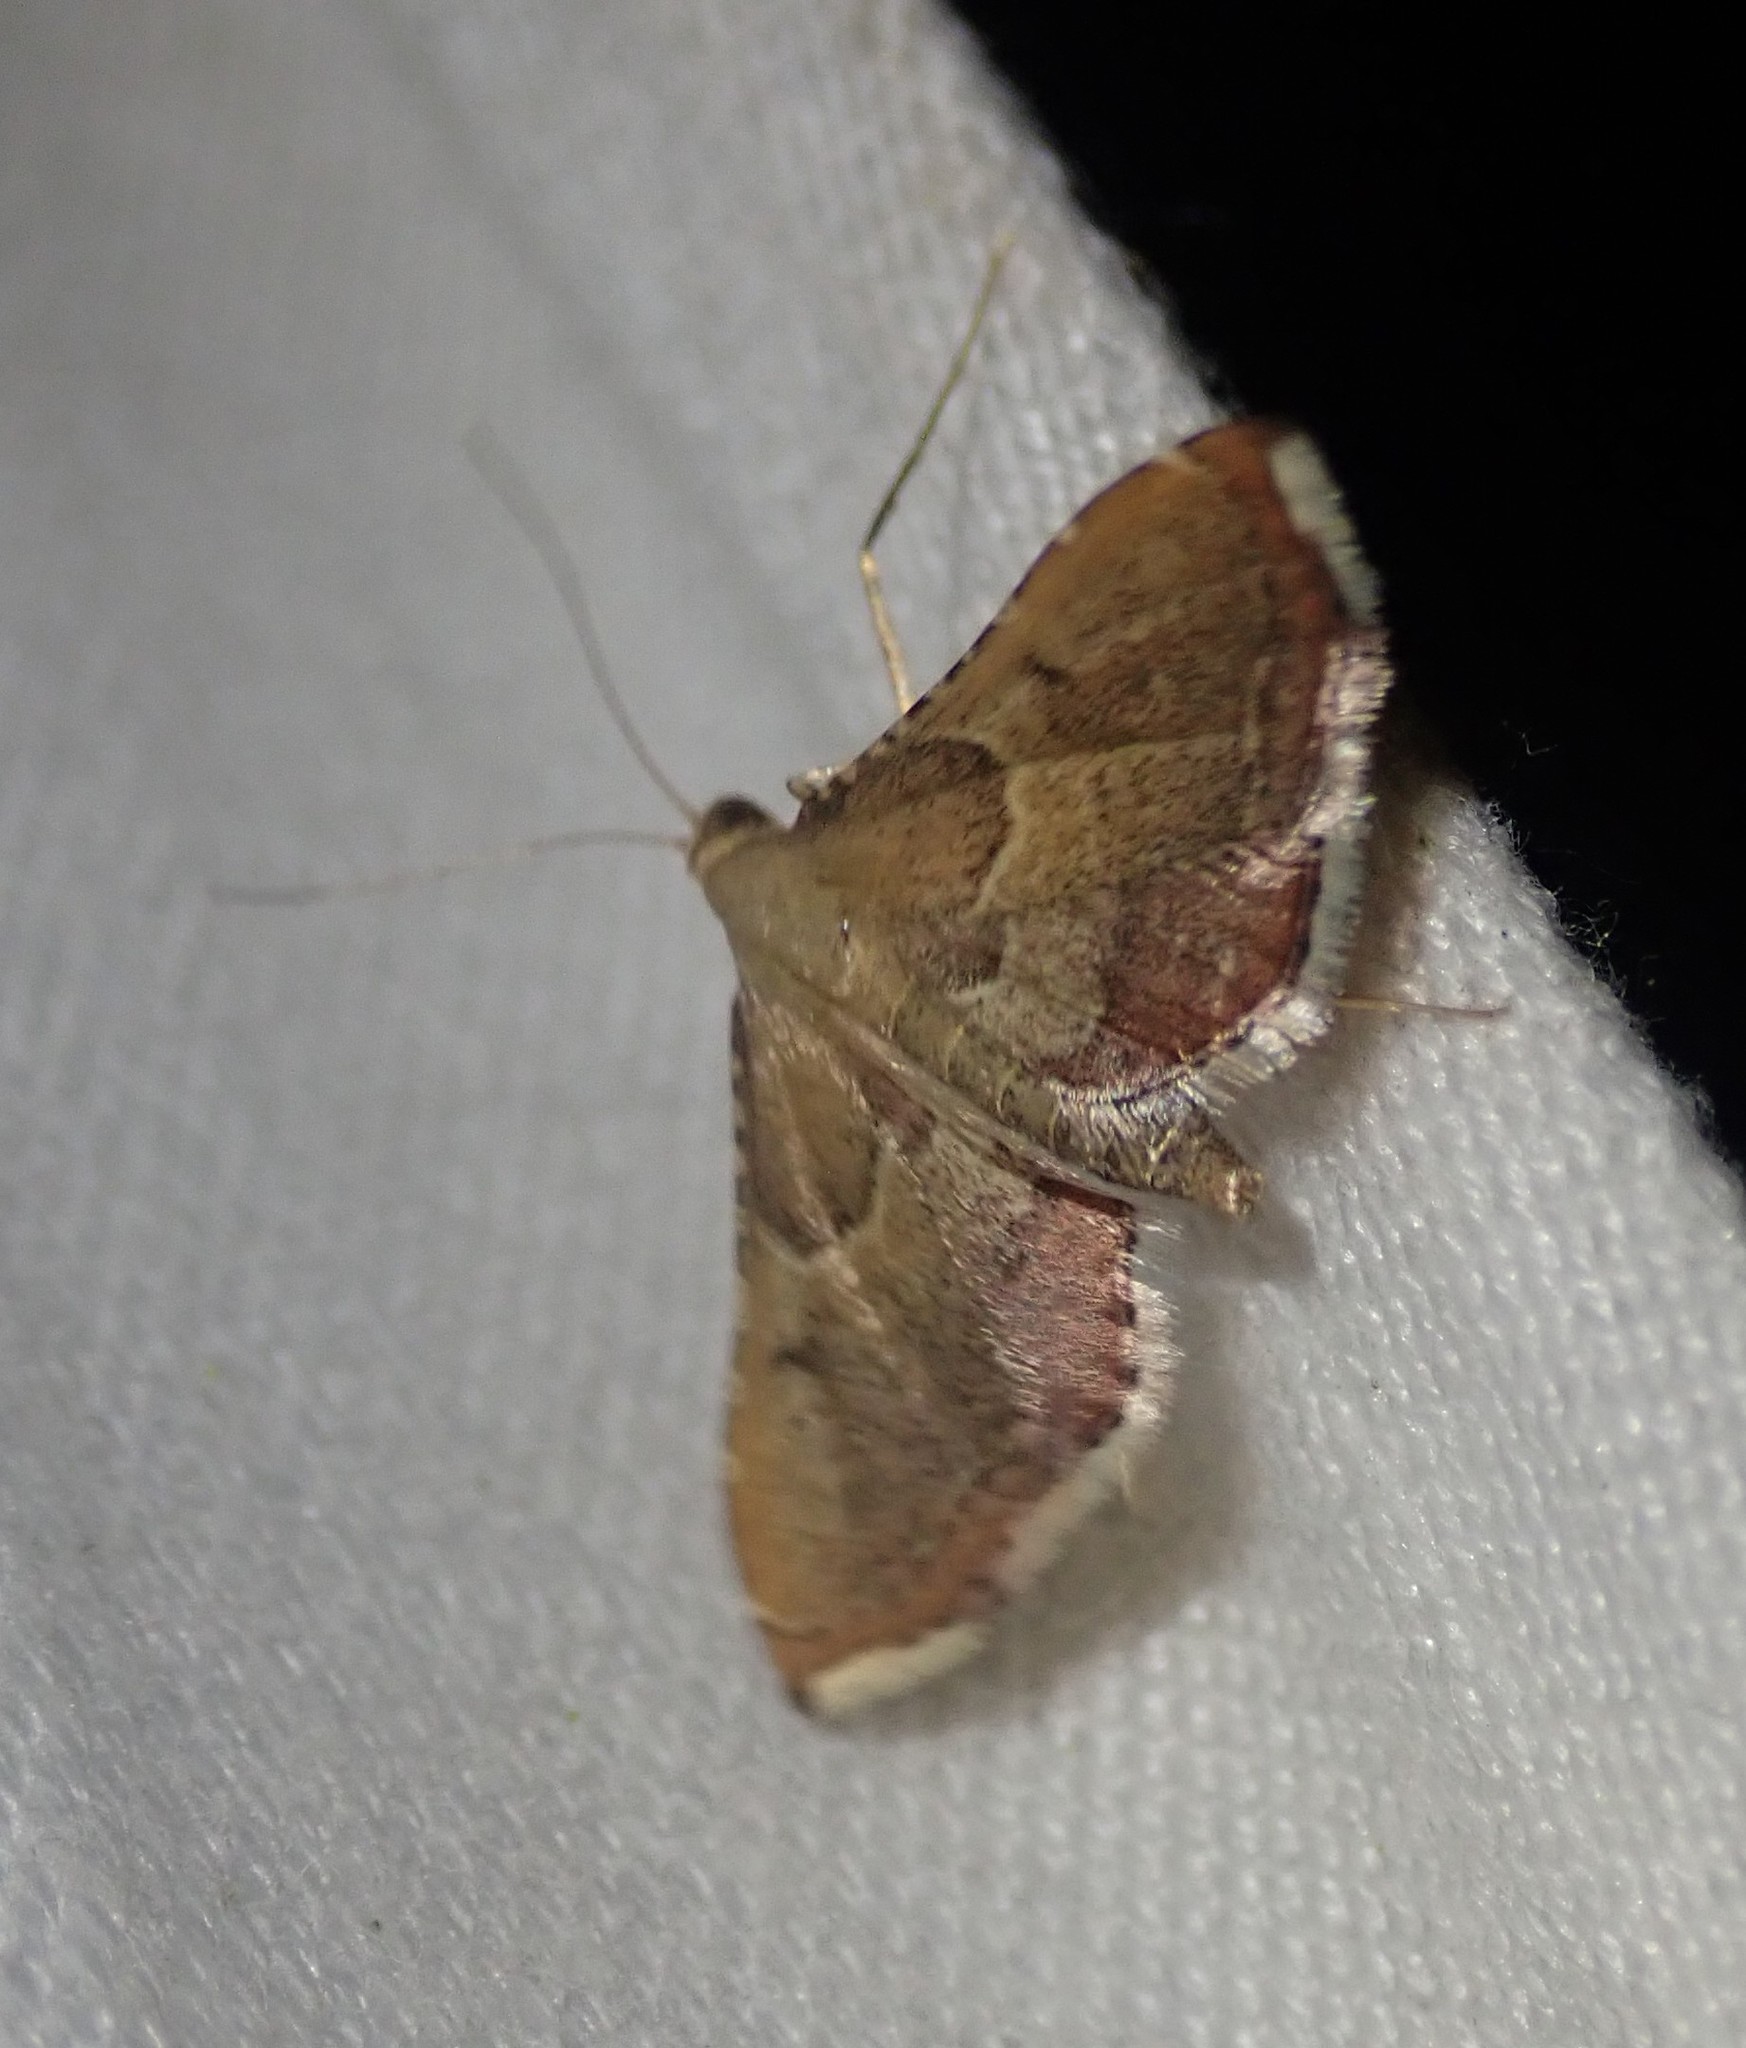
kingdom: Animalia
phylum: Arthropoda
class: Insecta
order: Lepidoptera
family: Pyralidae
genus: Endotricha
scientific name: Endotricha flammealis
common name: Rosy tabby
